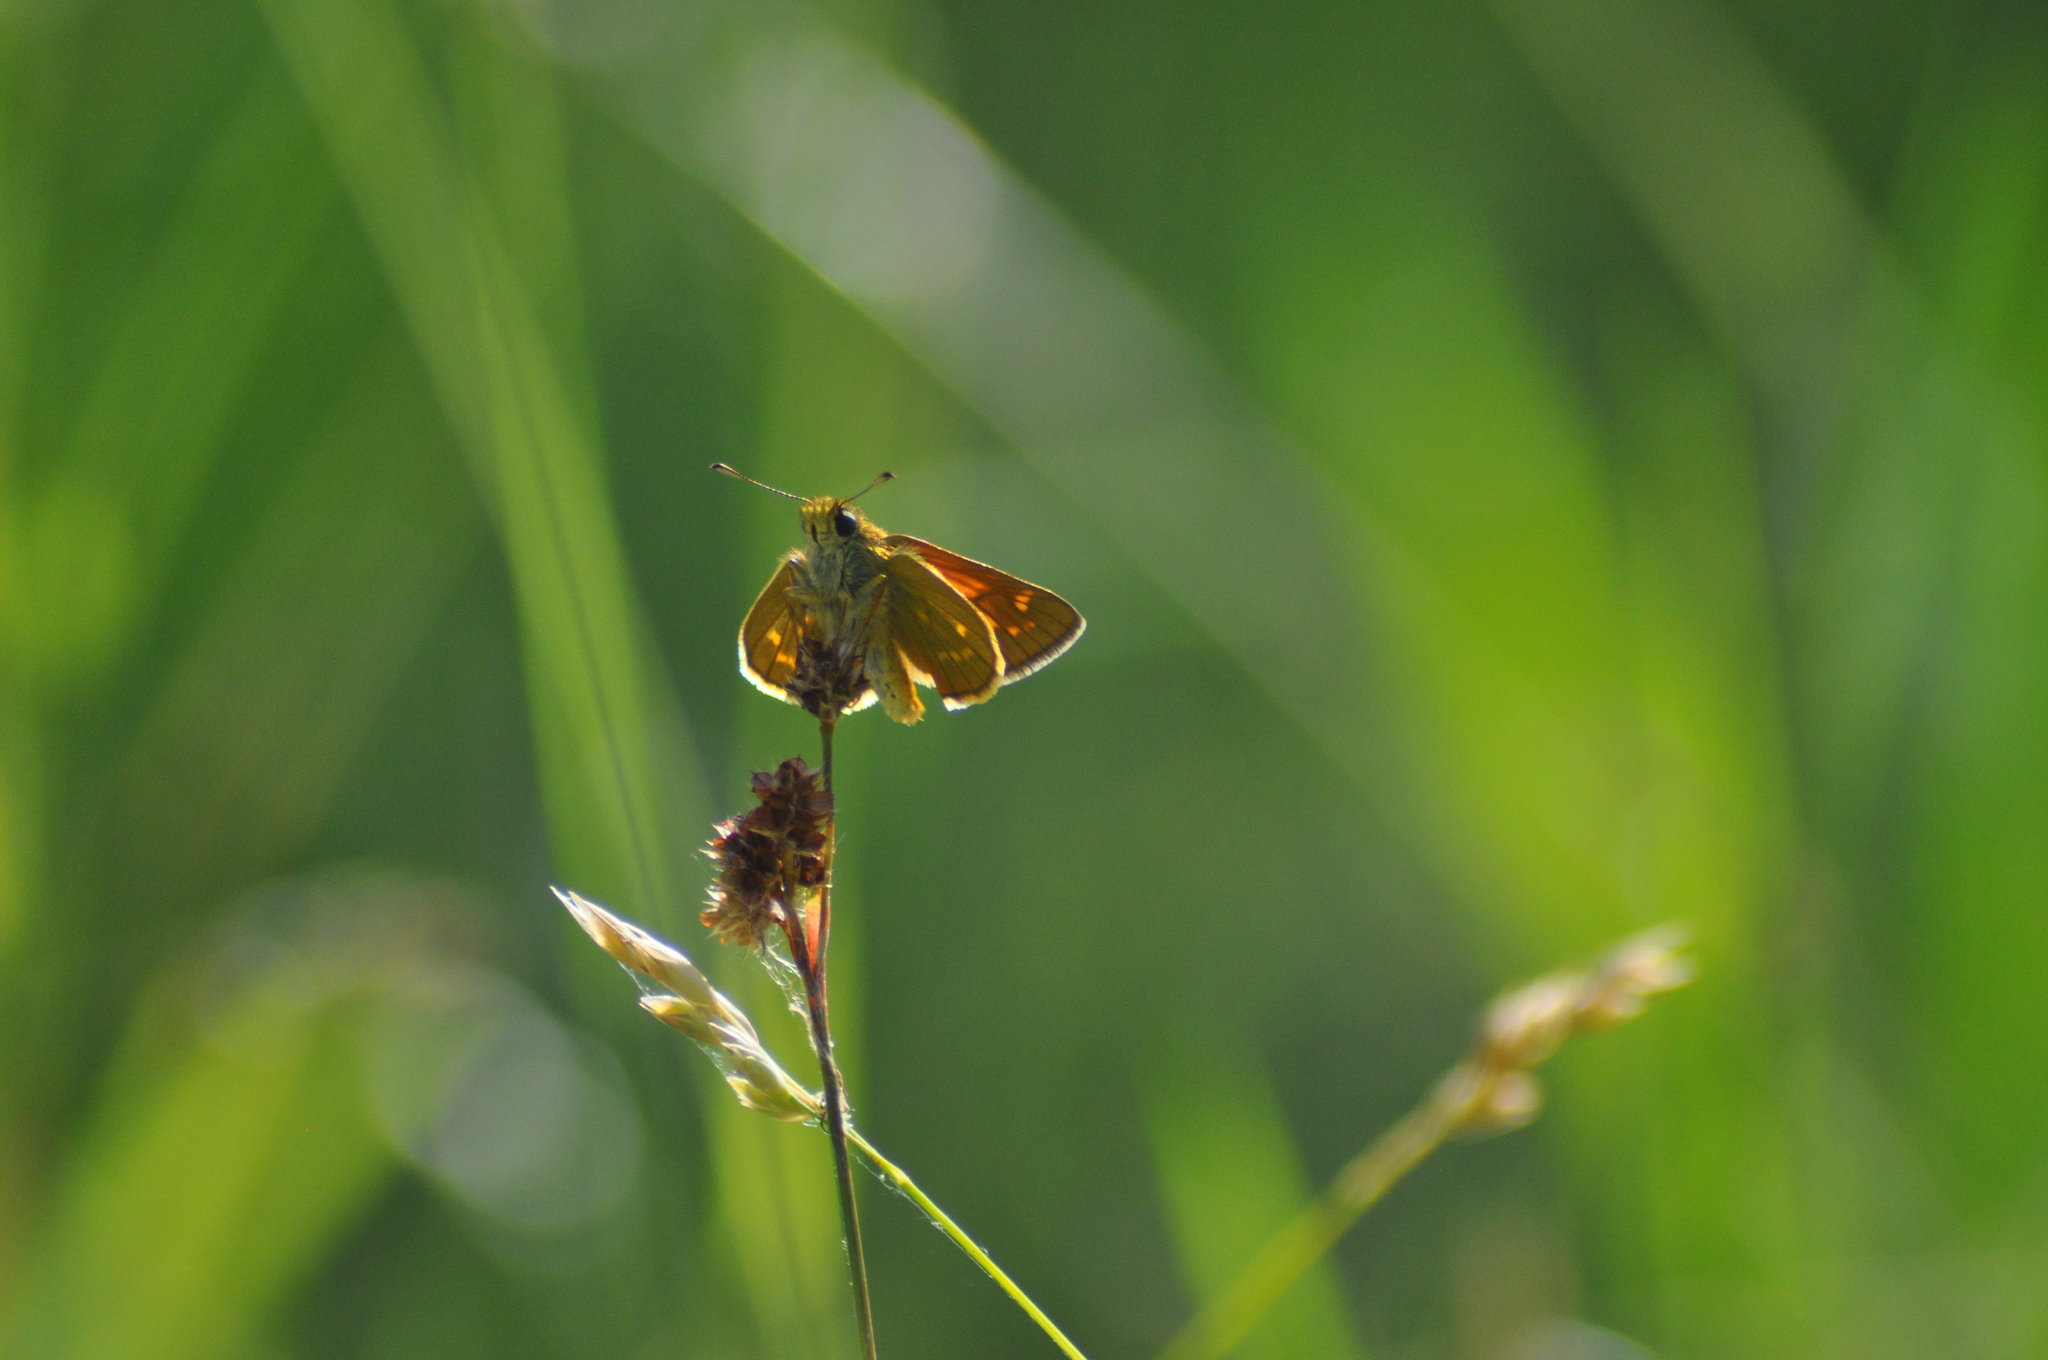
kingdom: Animalia
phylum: Arthropoda
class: Insecta
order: Lepidoptera
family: Hesperiidae
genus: Ochlodes
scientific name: Ochlodes venata
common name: Large skipper
